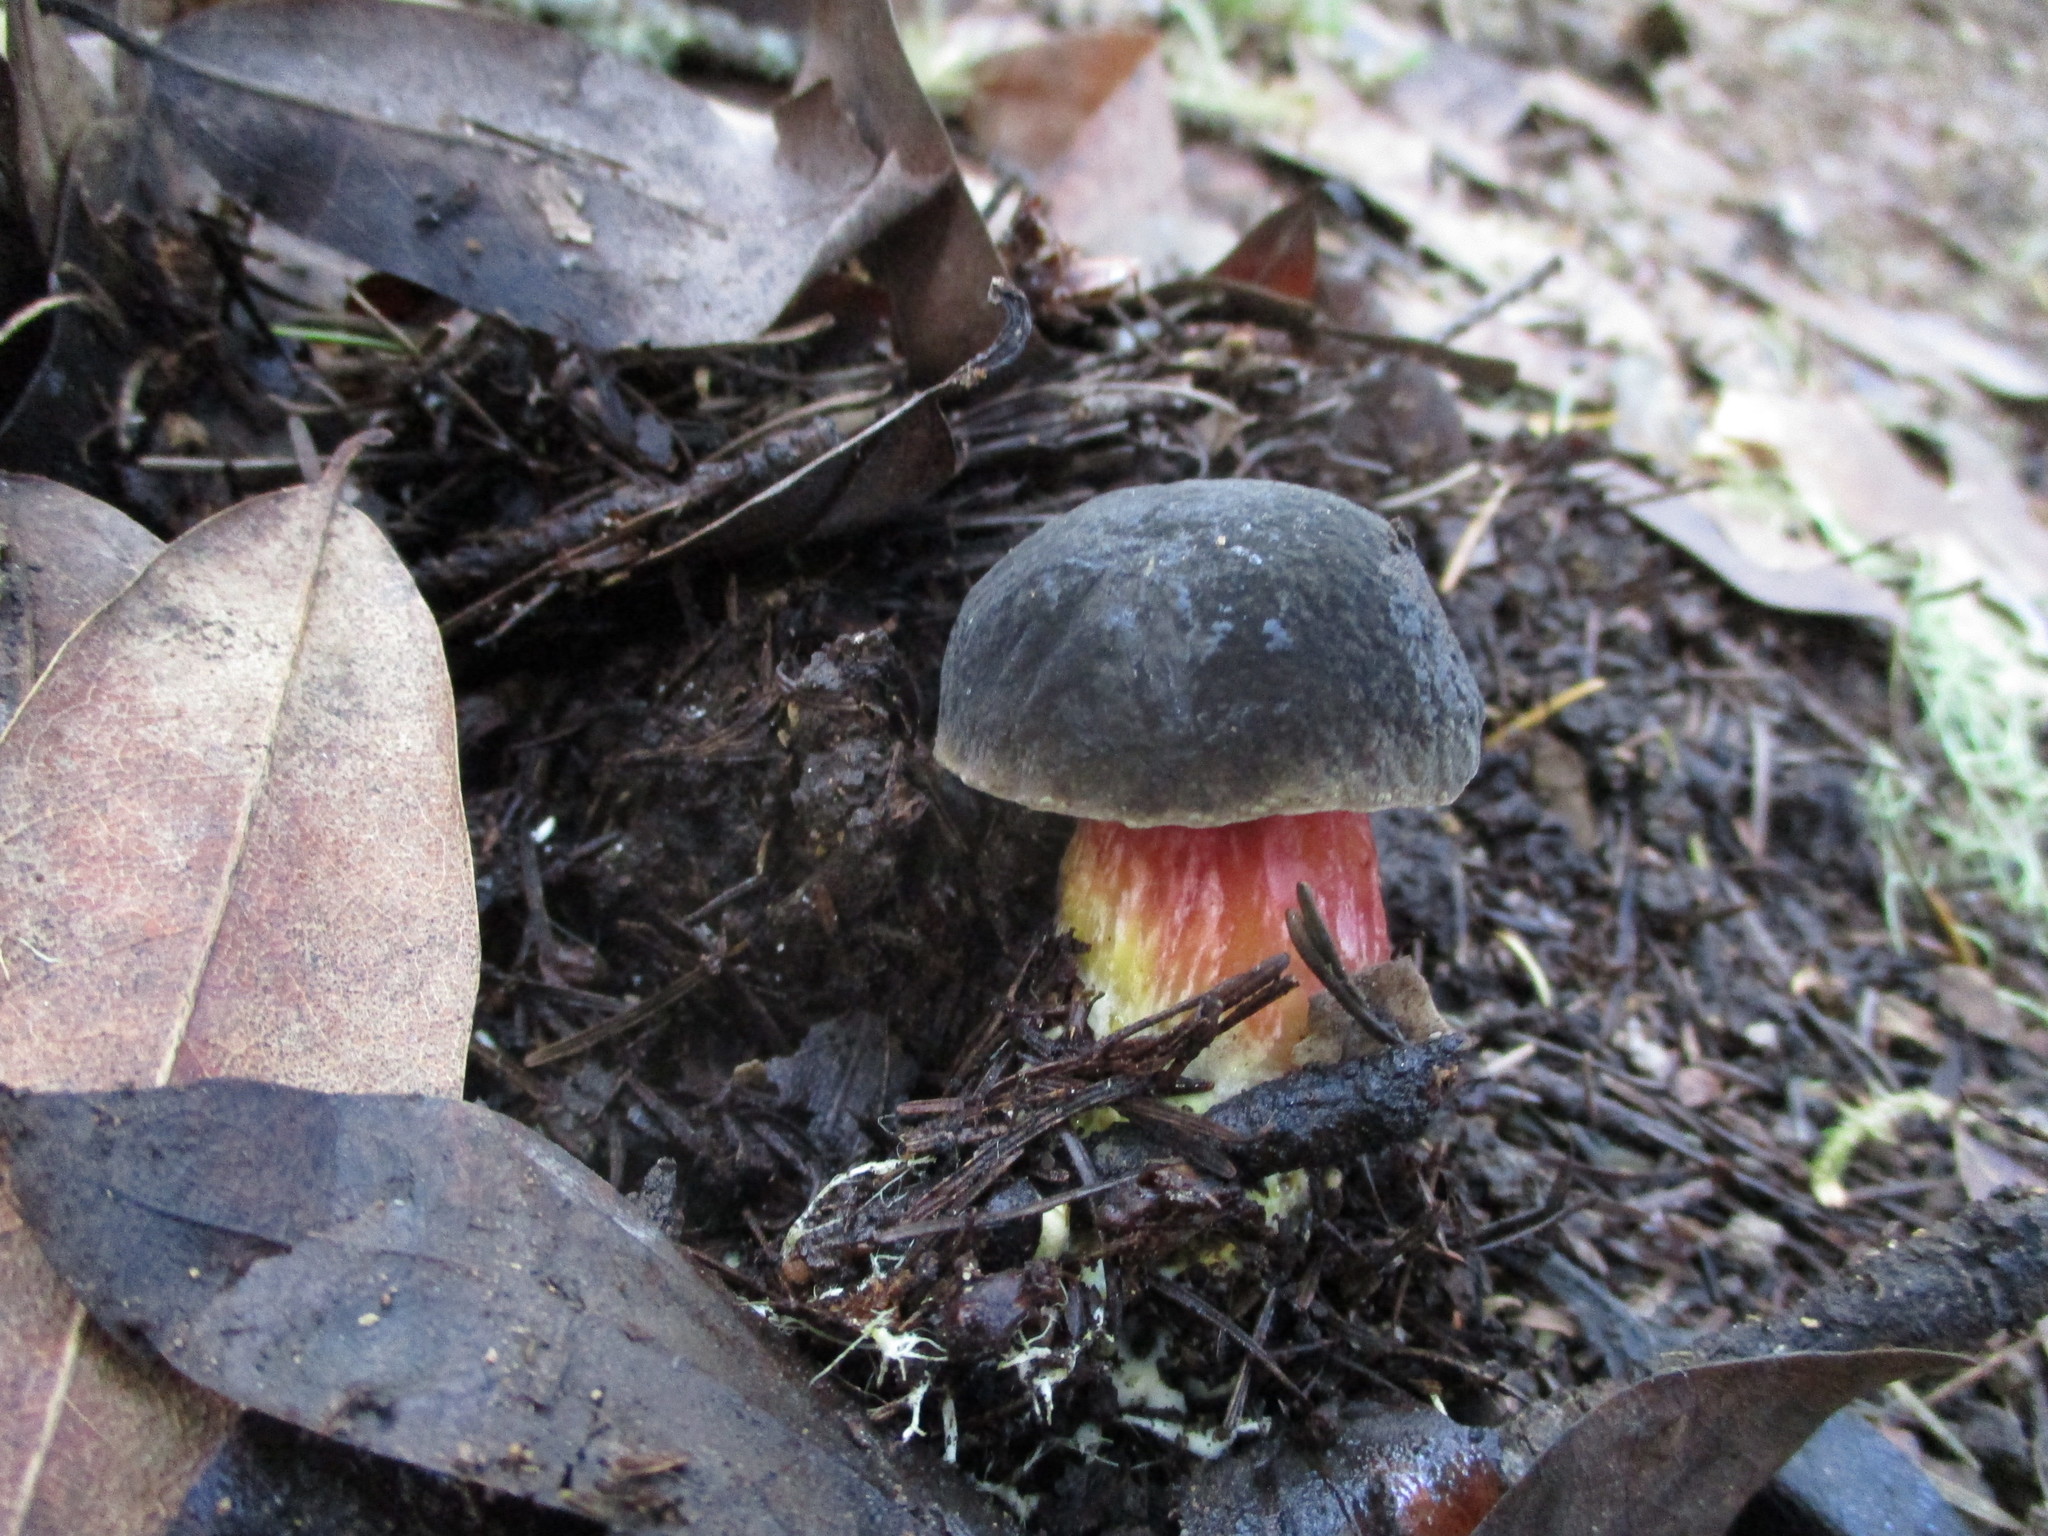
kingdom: Fungi
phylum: Basidiomycota
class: Agaricomycetes
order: Boletales
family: Boletaceae
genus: Xerocomellus
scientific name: Xerocomellus atropurpureus
